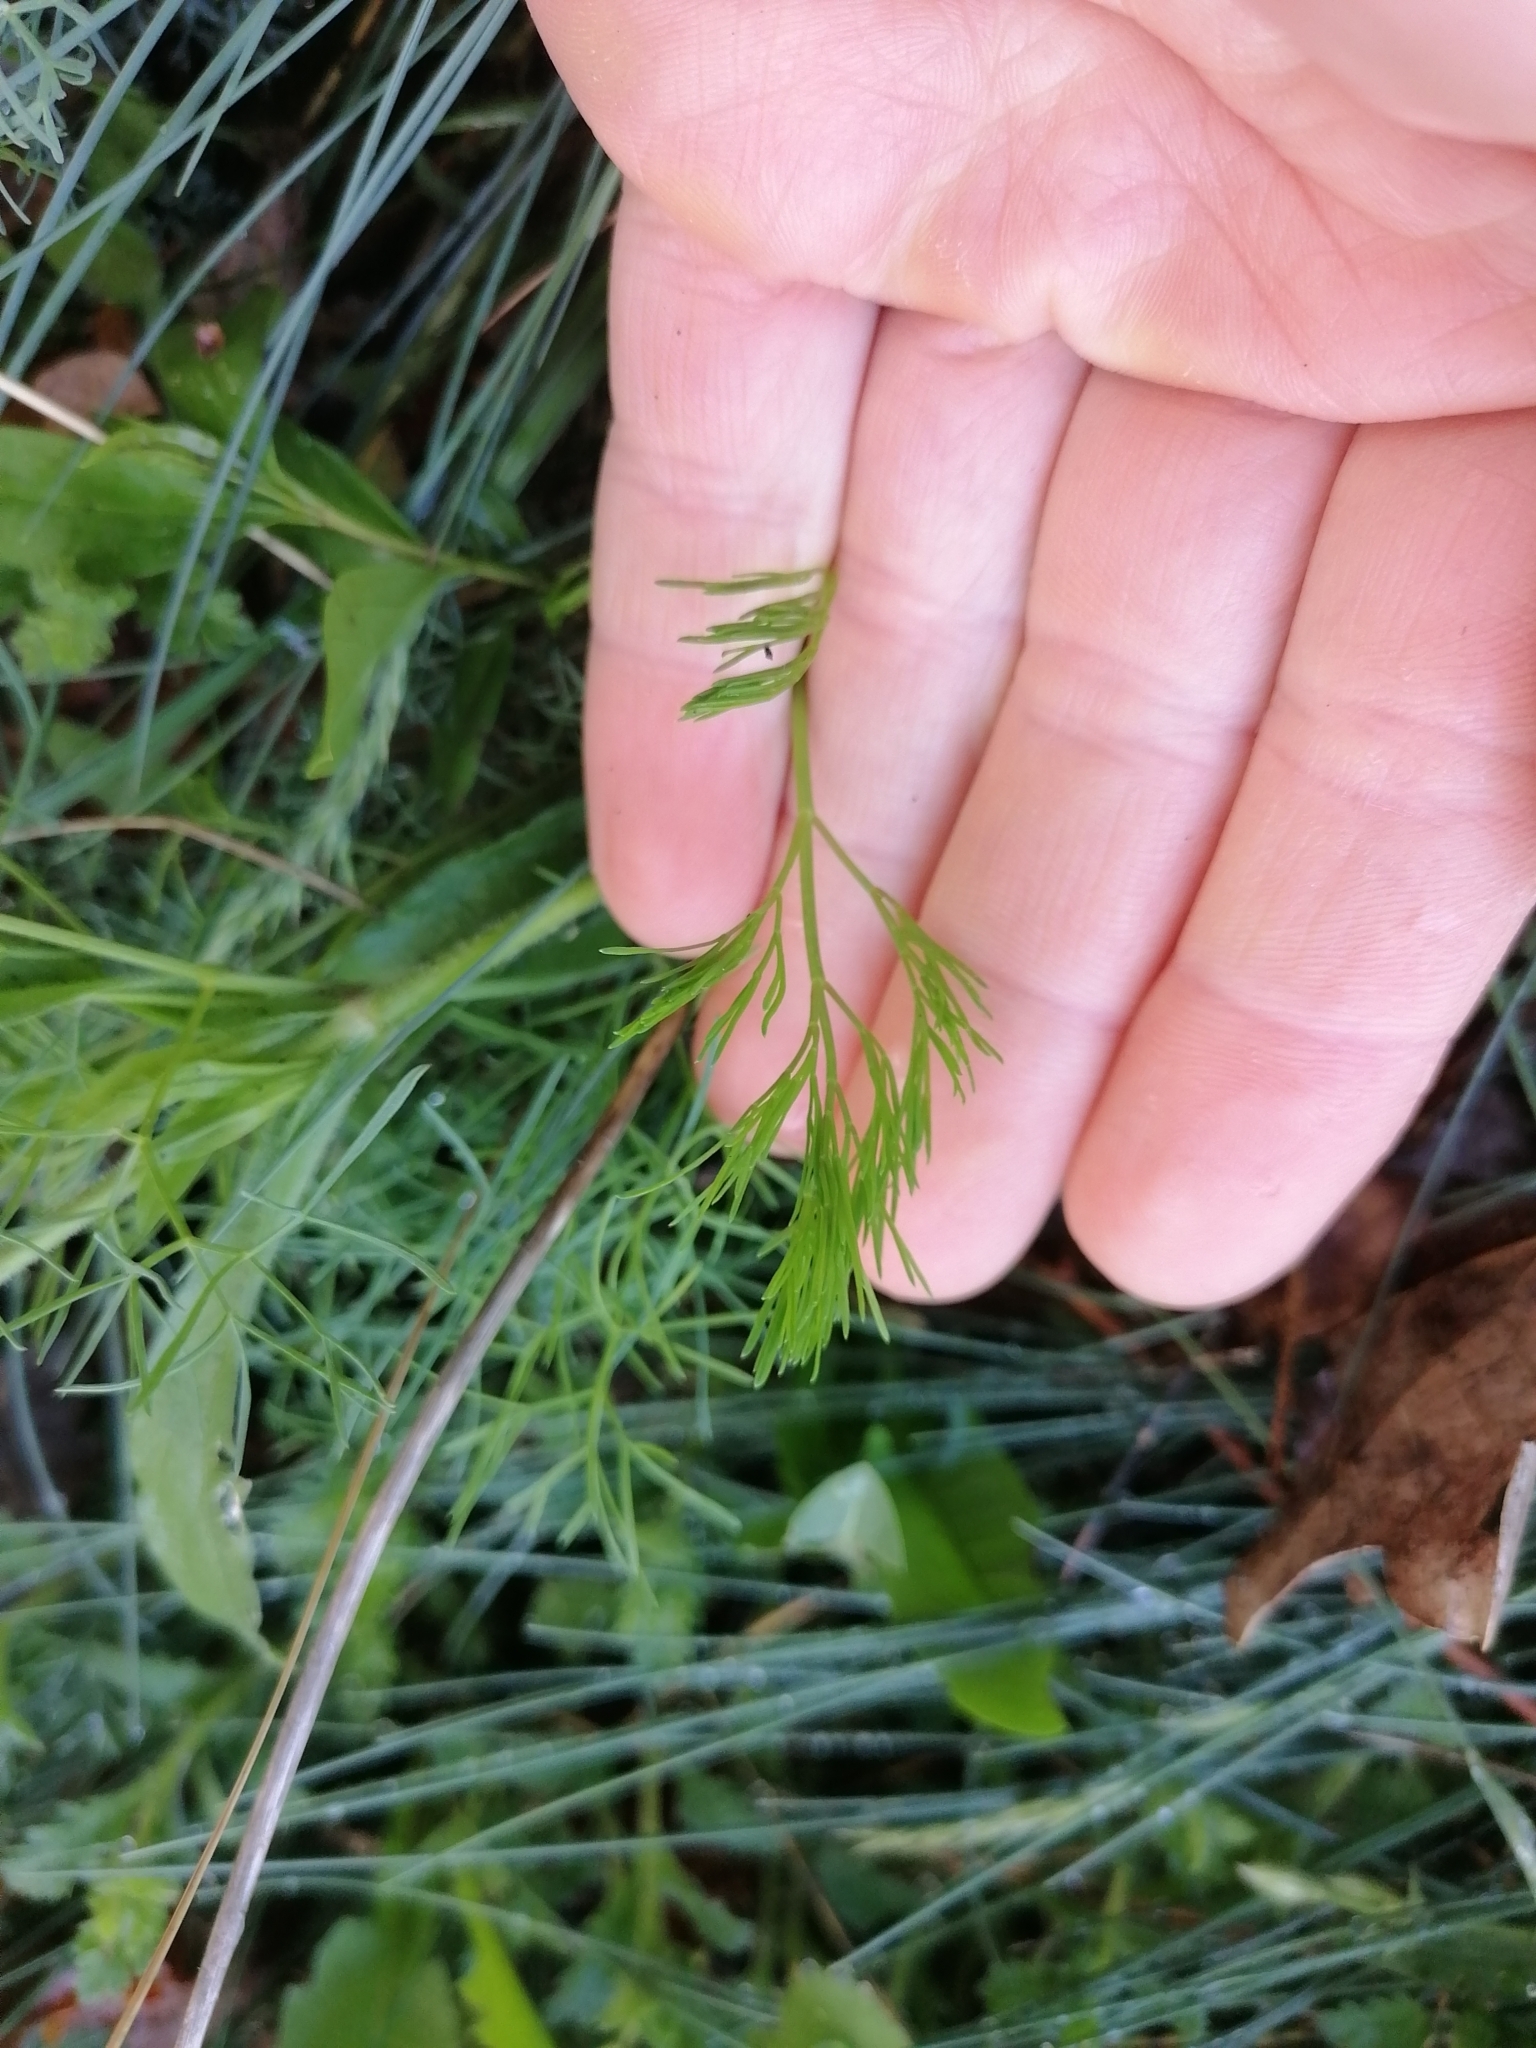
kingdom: Plantae
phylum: Tracheophyta
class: Magnoliopsida
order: Apiales
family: Apiaceae
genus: Seseli
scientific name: Seseli austriacum
